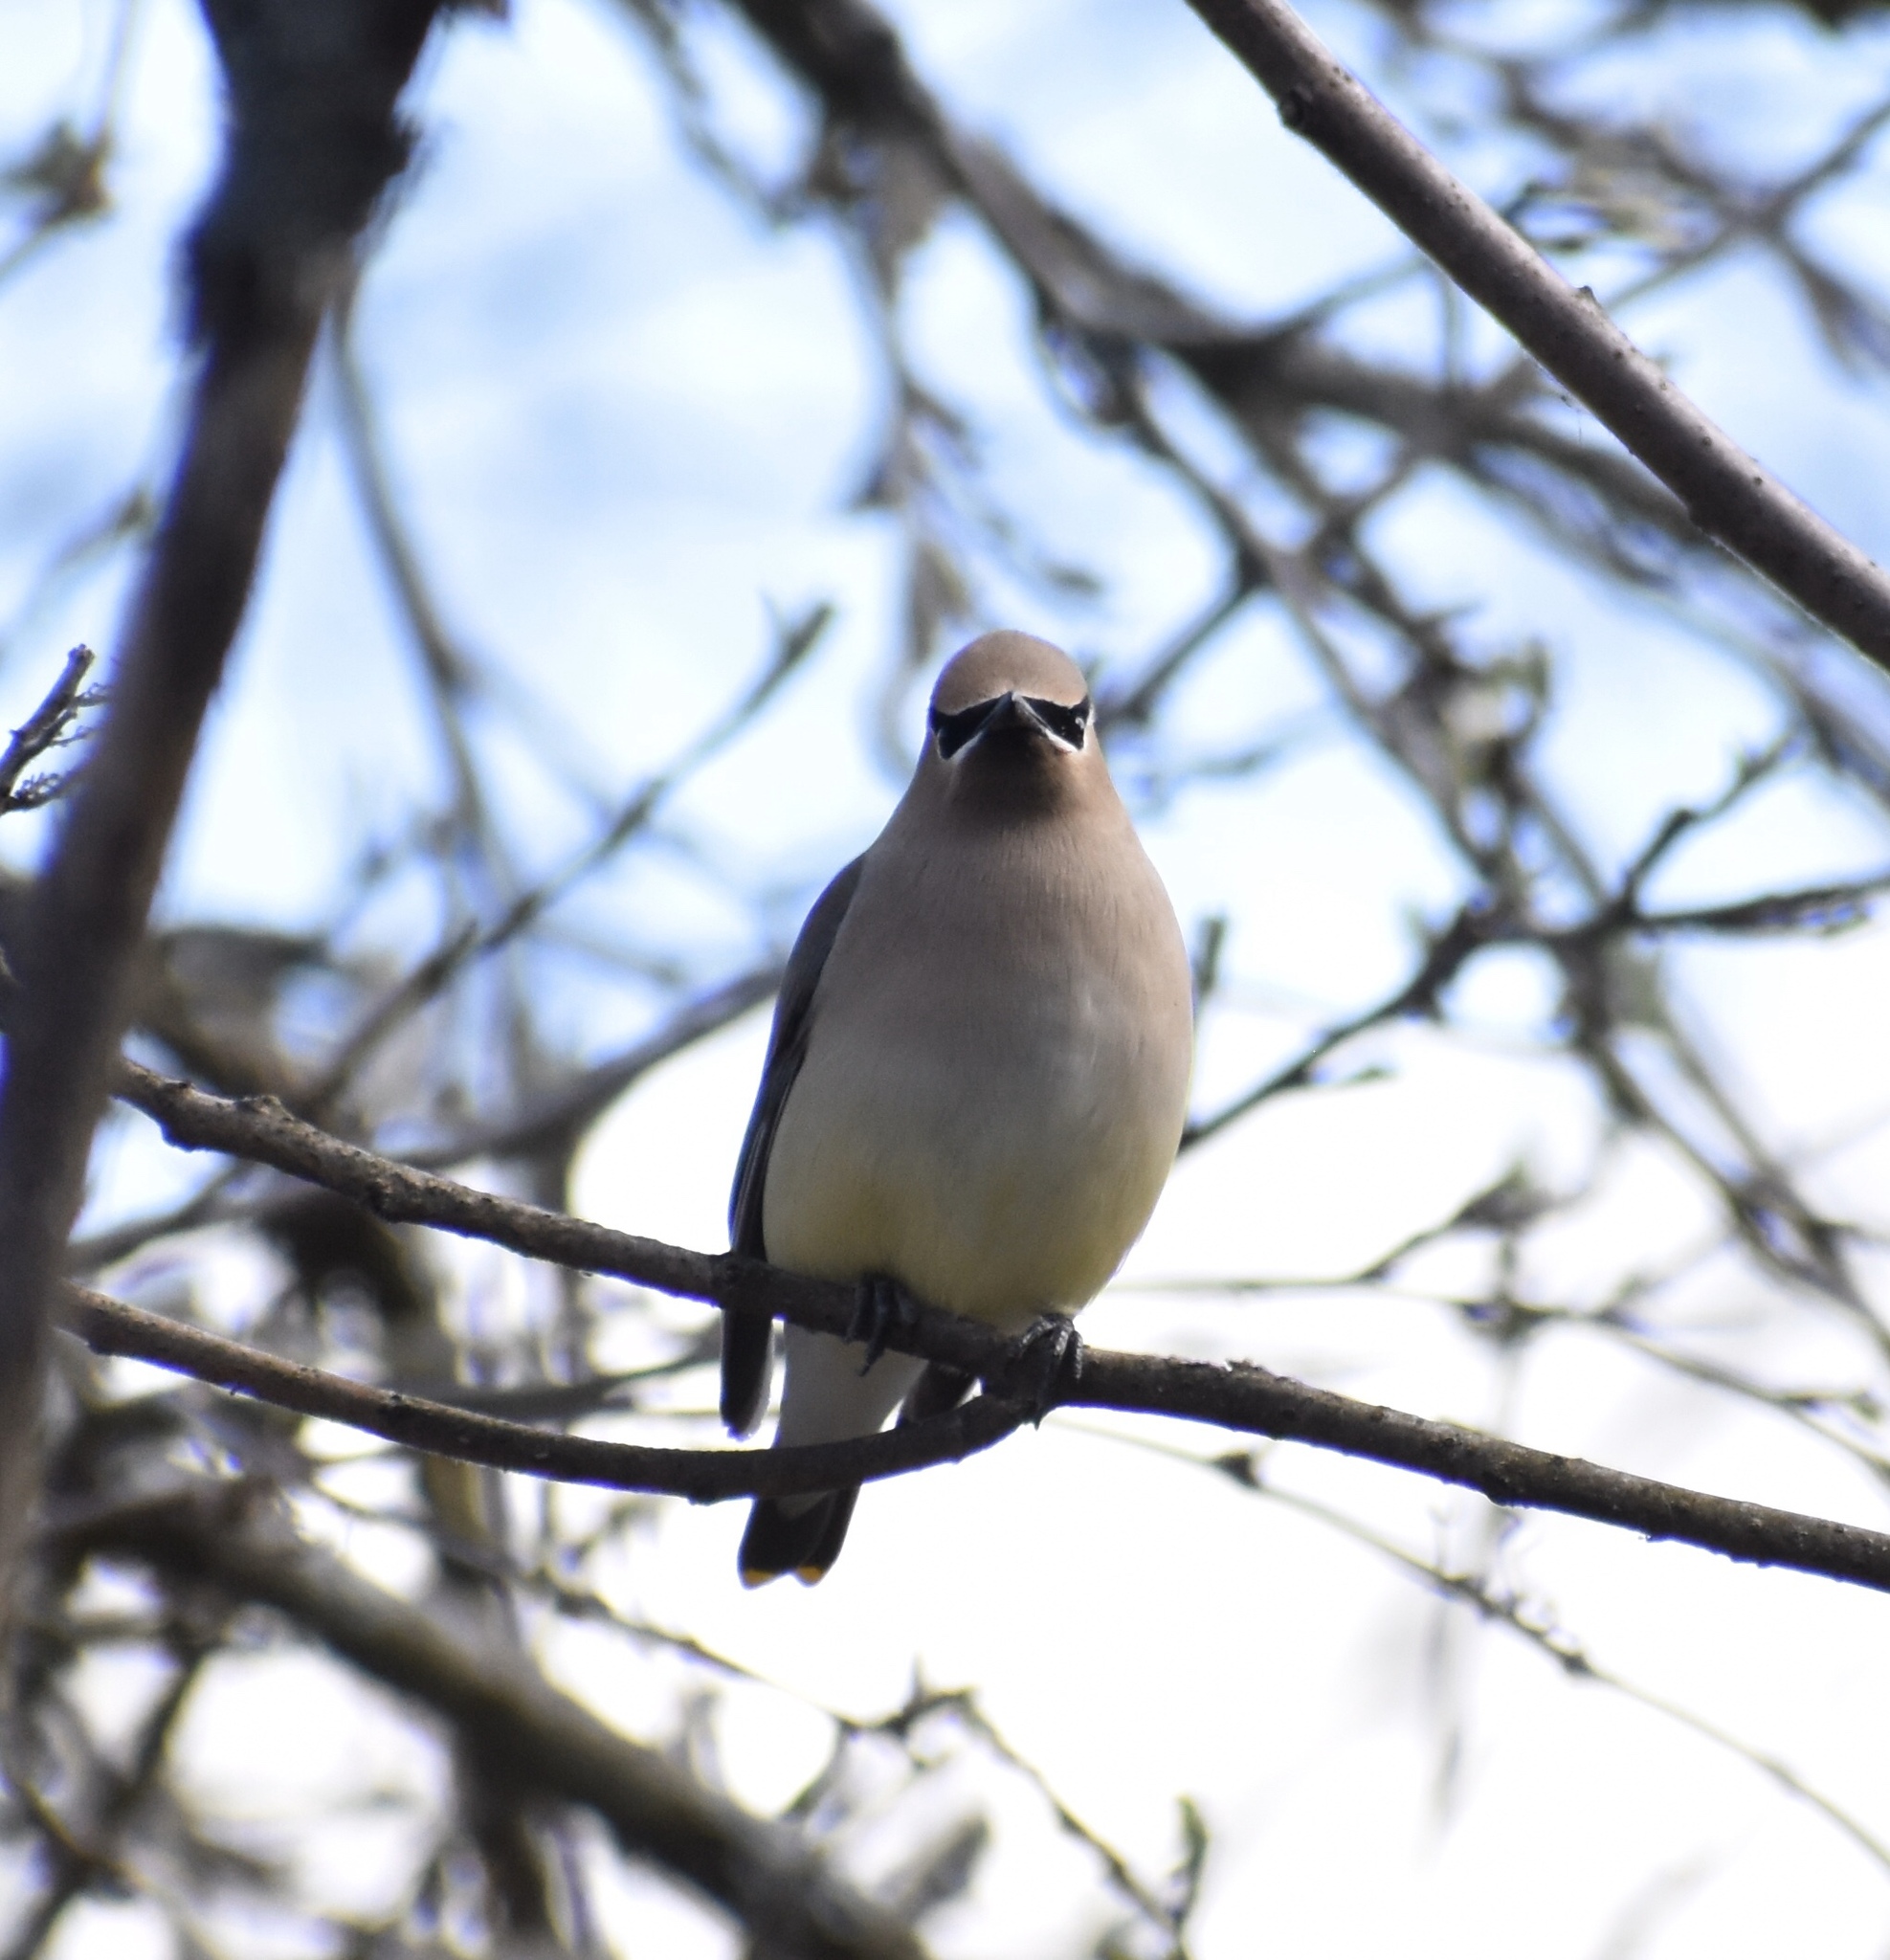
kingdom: Animalia
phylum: Chordata
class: Aves
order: Passeriformes
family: Bombycillidae
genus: Bombycilla
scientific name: Bombycilla cedrorum
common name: Cedar waxwing
